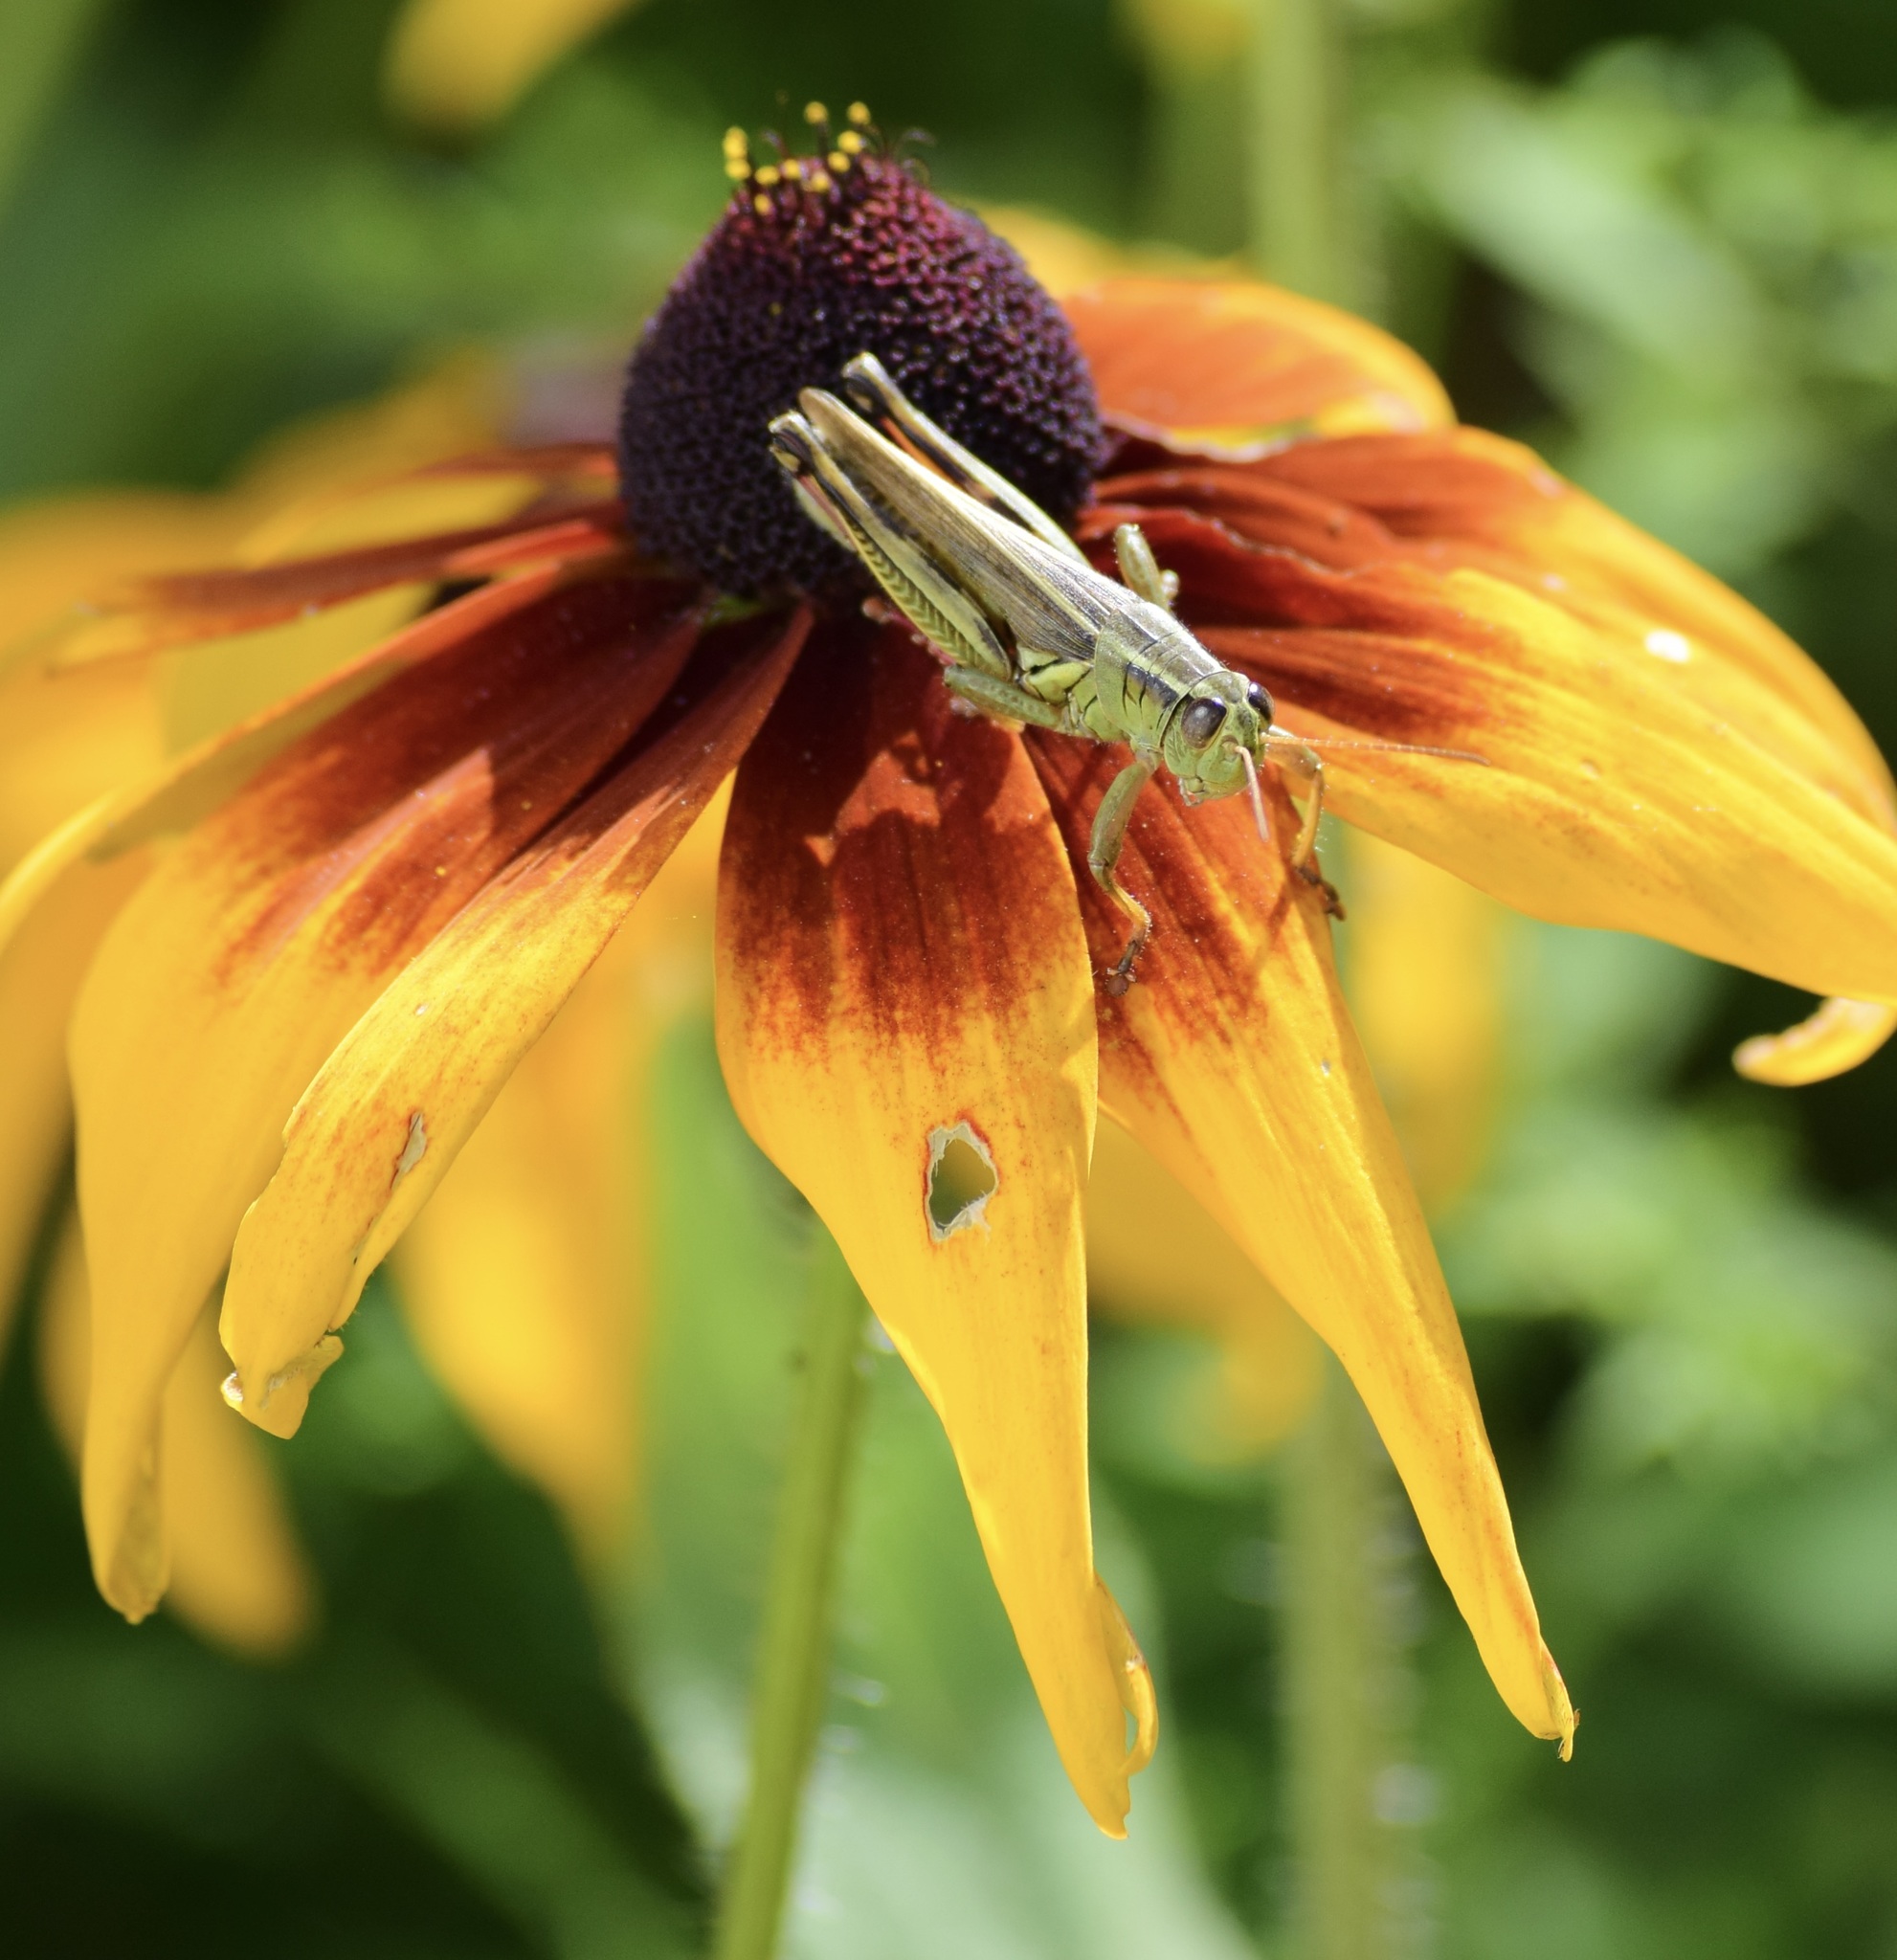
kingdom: Animalia
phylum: Arthropoda
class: Insecta
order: Orthoptera
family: Acrididae
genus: Melanoplus
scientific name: Melanoplus bivittatus
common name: Two-striped grasshopper
